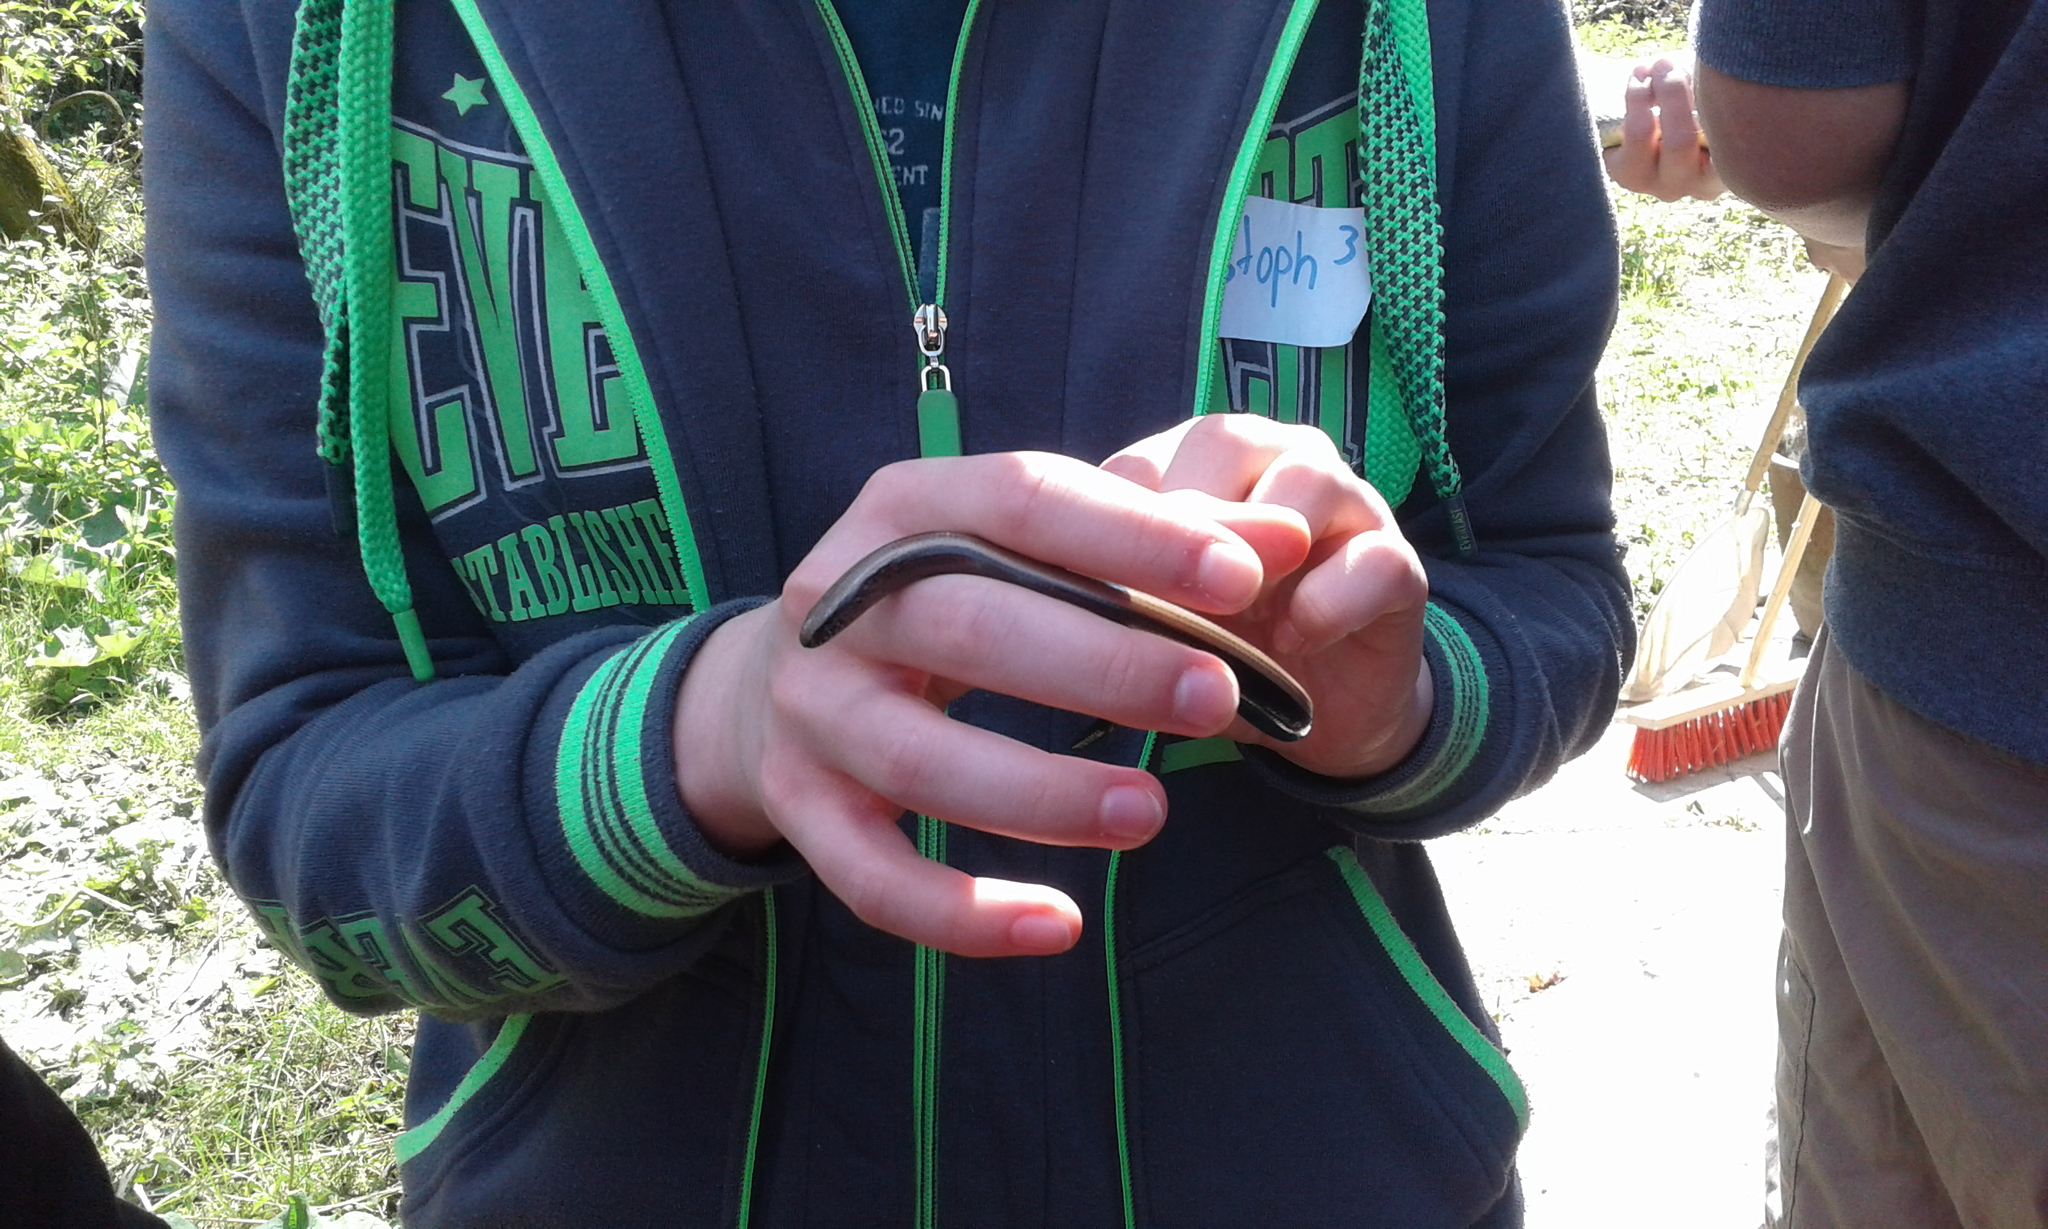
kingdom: Animalia
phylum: Chordata
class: Squamata
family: Anguidae
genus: Anguis
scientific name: Anguis fragilis
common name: Slow worm
